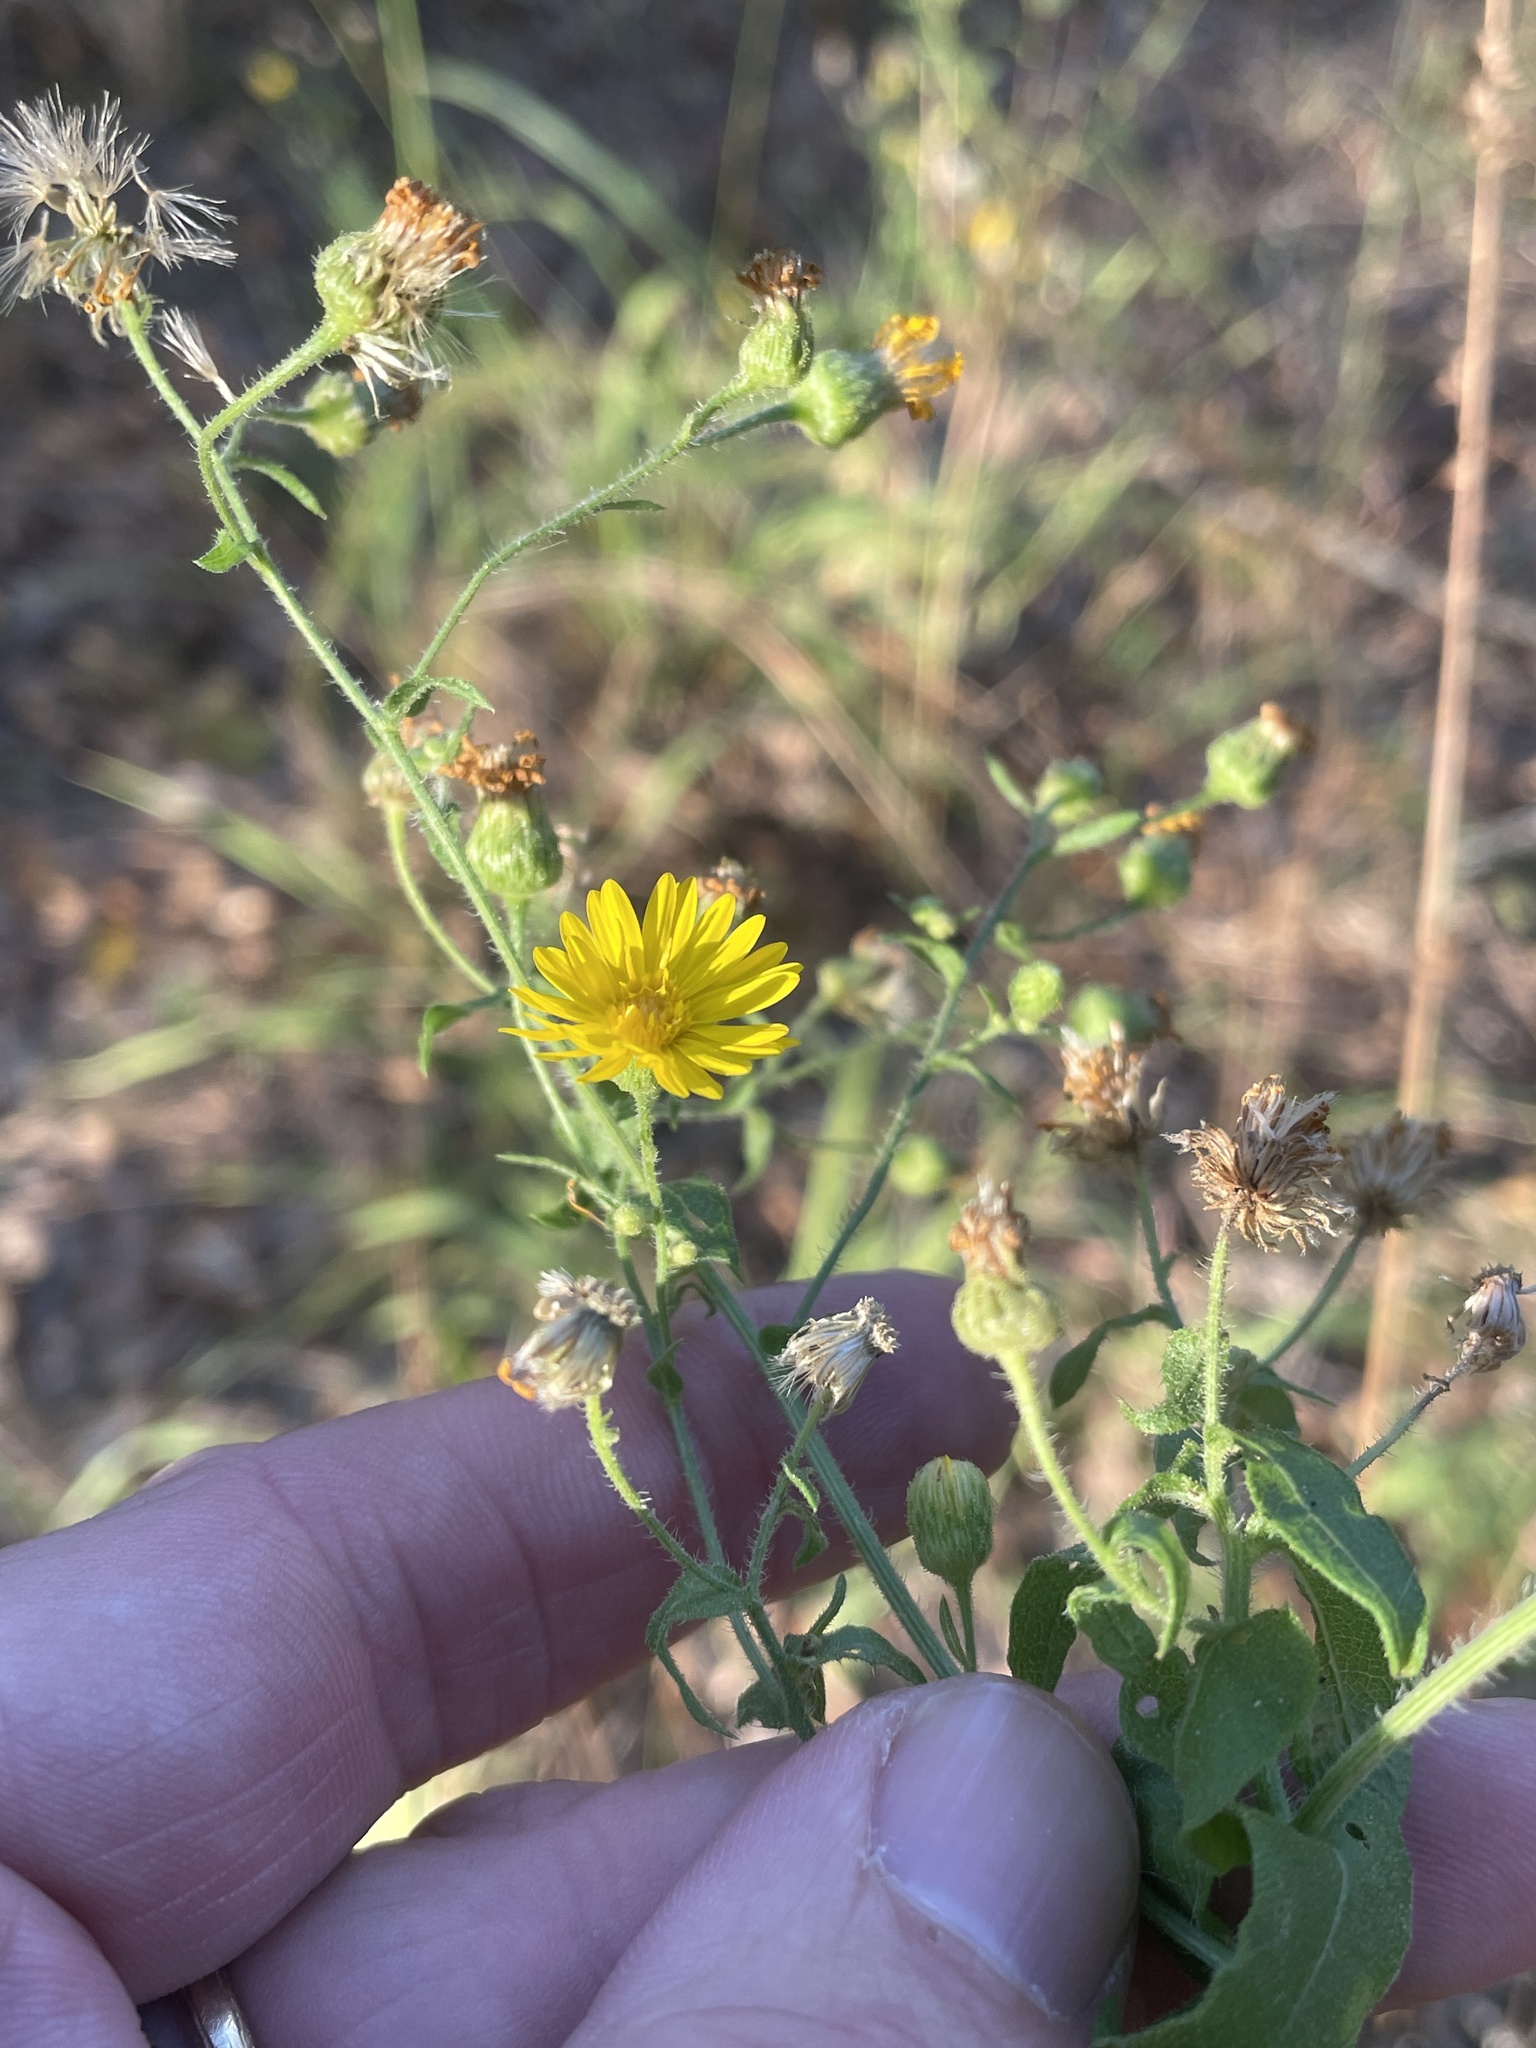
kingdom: Plantae
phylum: Tracheophyta
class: Magnoliopsida
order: Asterales
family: Asteraceae
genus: Heterotheca
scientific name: Heterotheca subaxillaris
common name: Camphorweed
